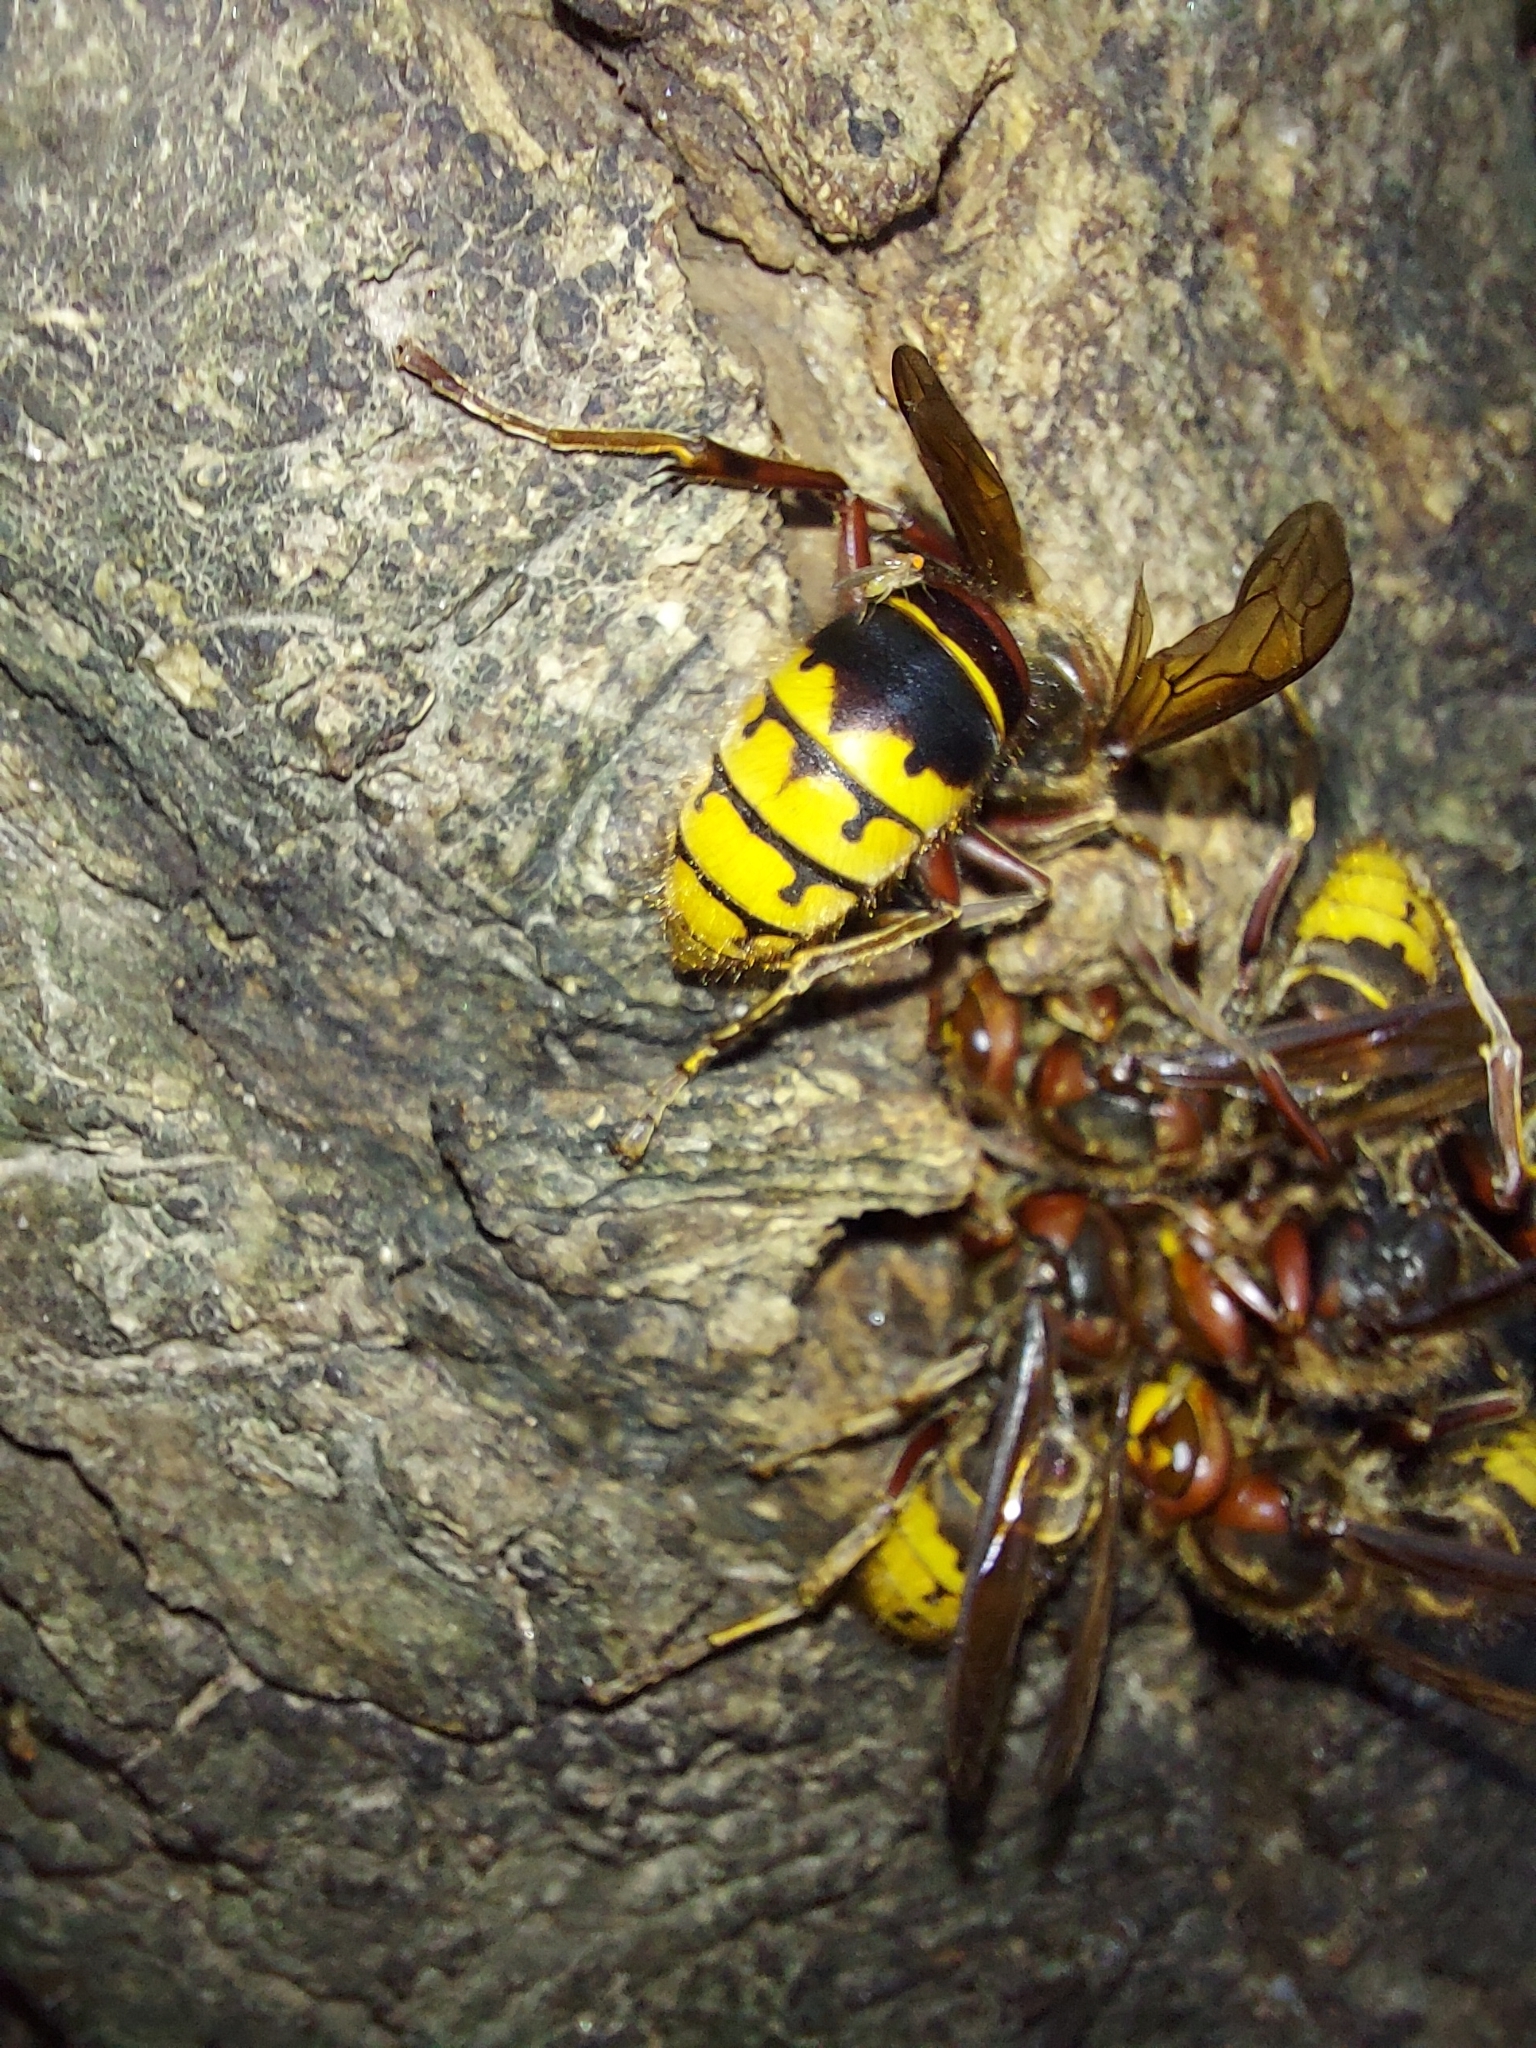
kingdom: Animalia
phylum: Arthropoda
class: Insecta
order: Hymenoptera
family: Vespidae
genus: Vespa
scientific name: Vespa crabro
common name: Hornet
